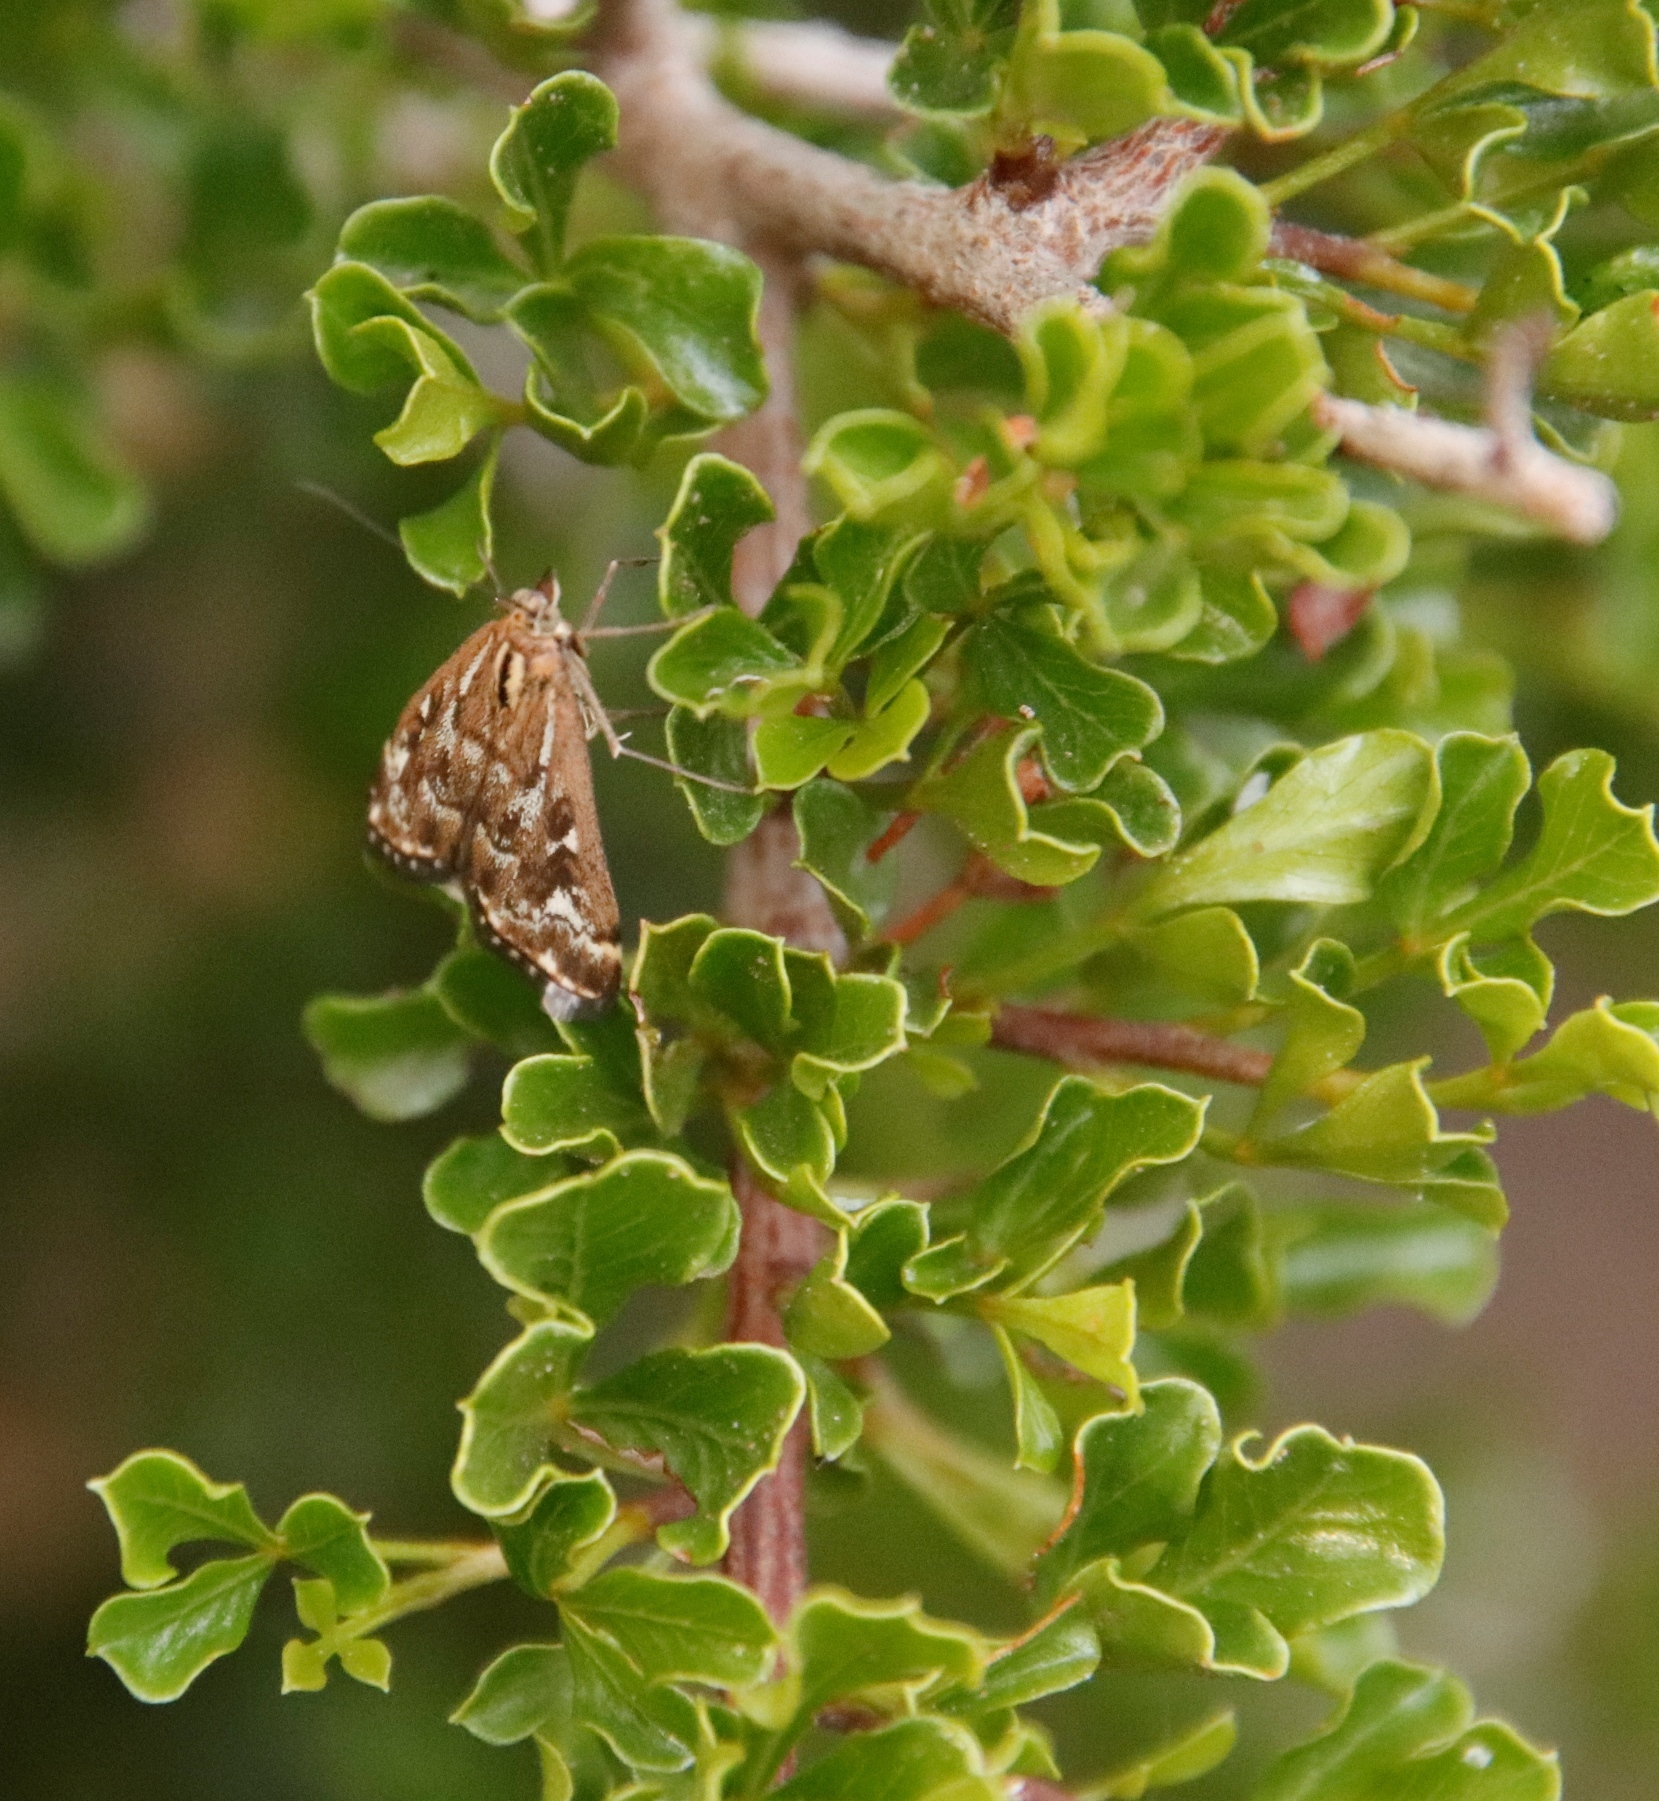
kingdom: Plantae
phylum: Tracheophyta
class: Magnoliopsida
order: Sapindales
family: Anacardiaceae
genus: Searsia
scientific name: Searsia burchellii
